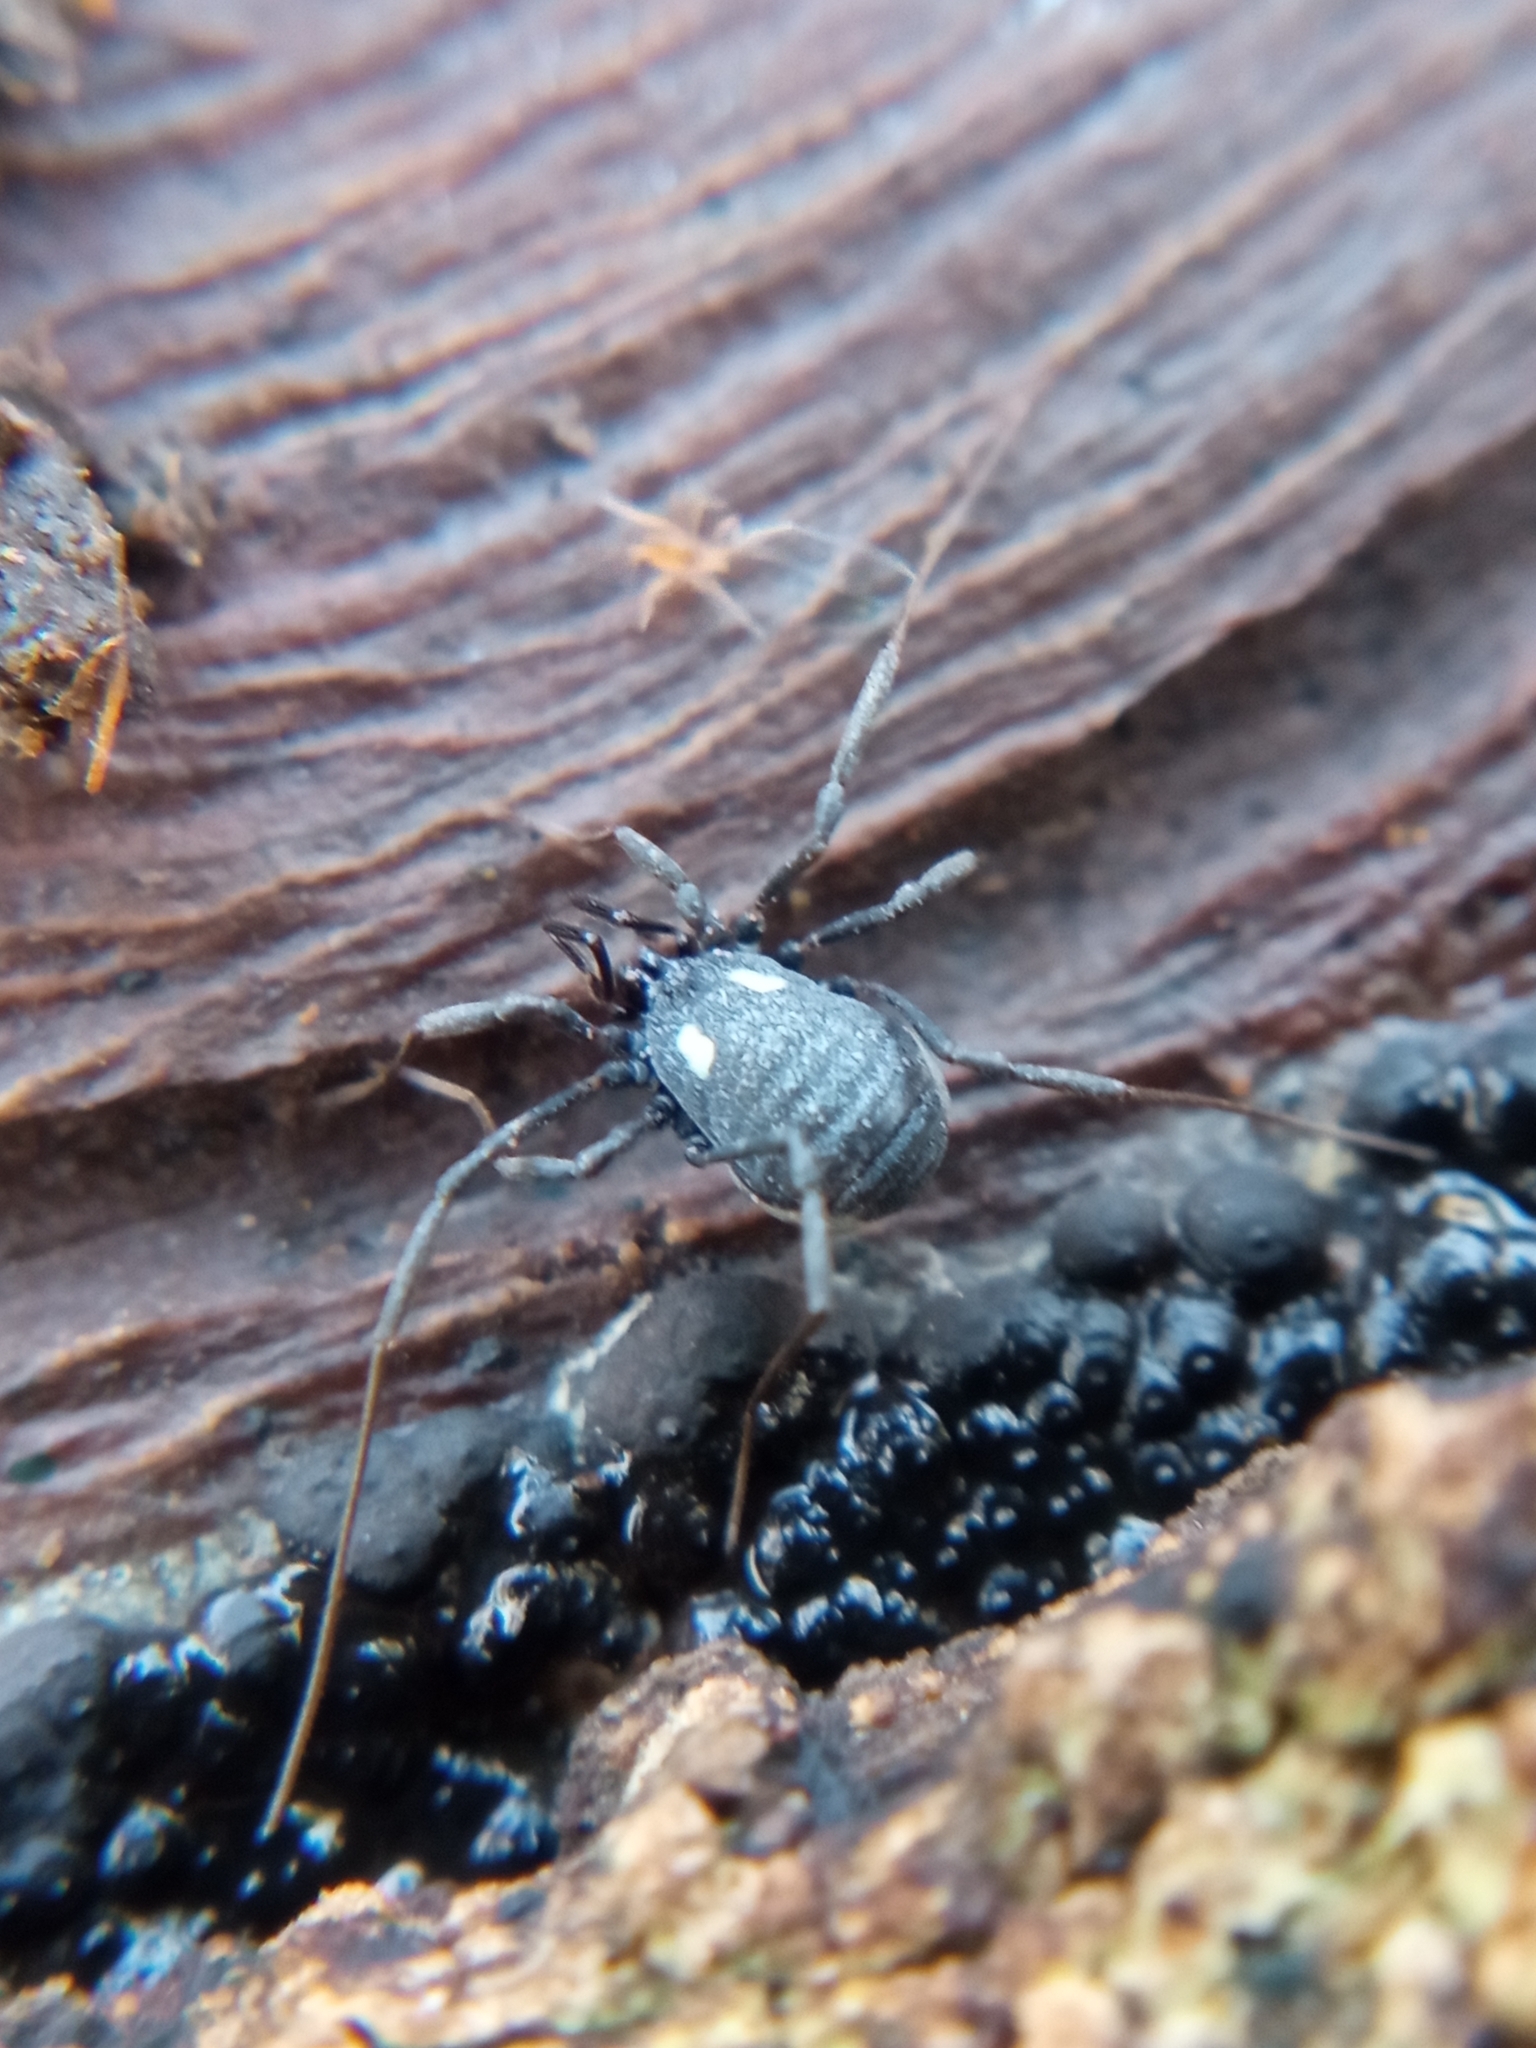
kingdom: Animalia
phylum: Arthropoda
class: Arachnida
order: Opiliones
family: Nemastomatidae
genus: Nemastoma
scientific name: Nemastoma lugubre
